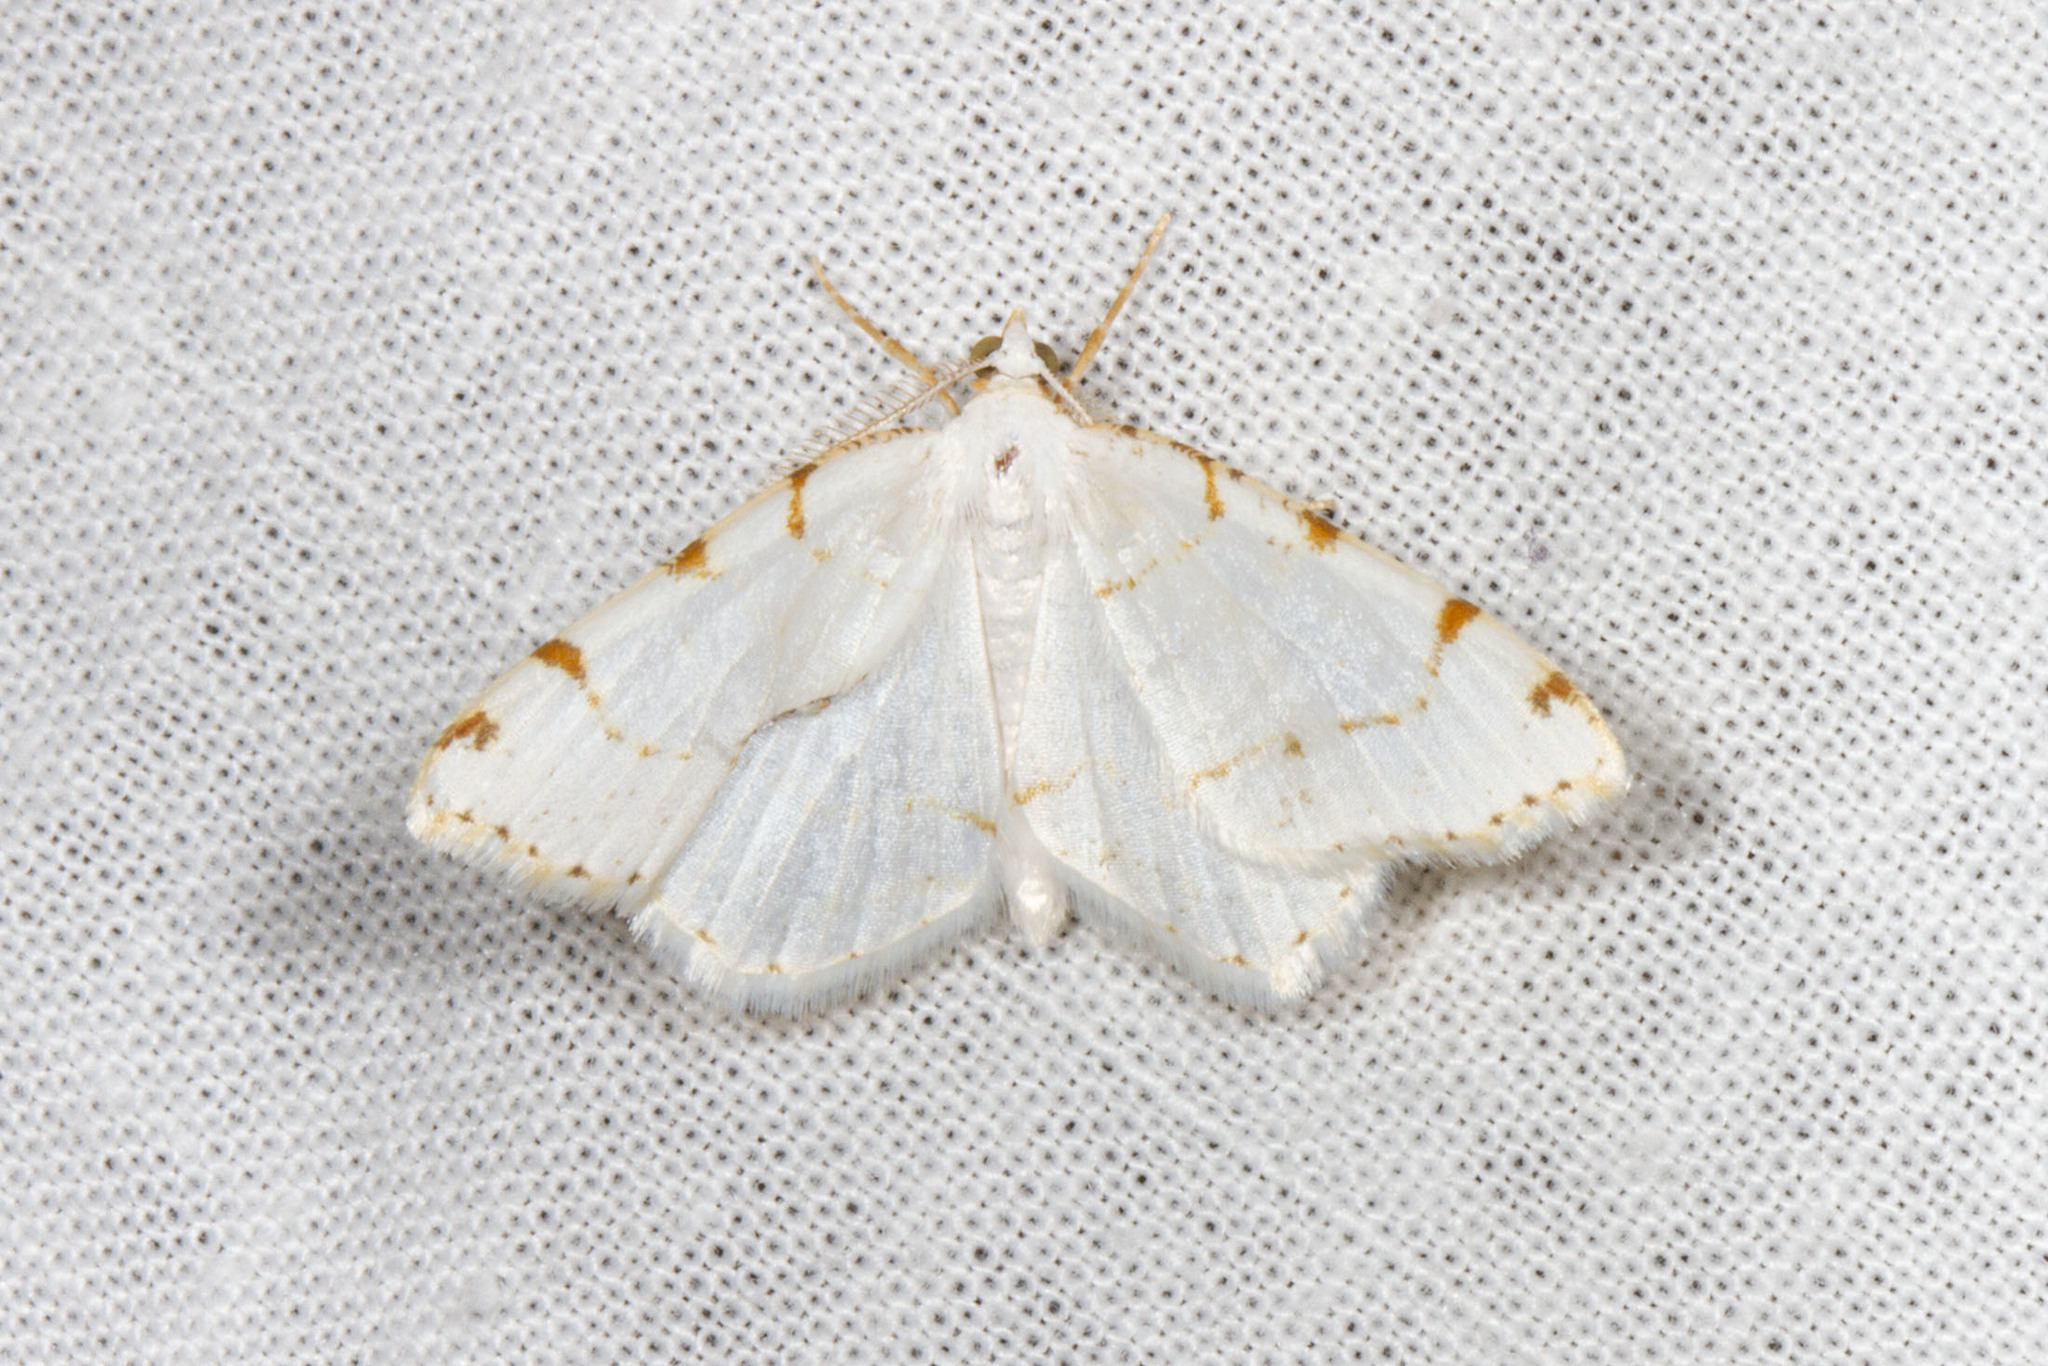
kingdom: Animalia
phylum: Arthropoda
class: Insecta
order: Lepidoptera
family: Geometridae
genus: Macaria
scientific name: Macaria pustularia
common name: Lesser maple spanworm moth
